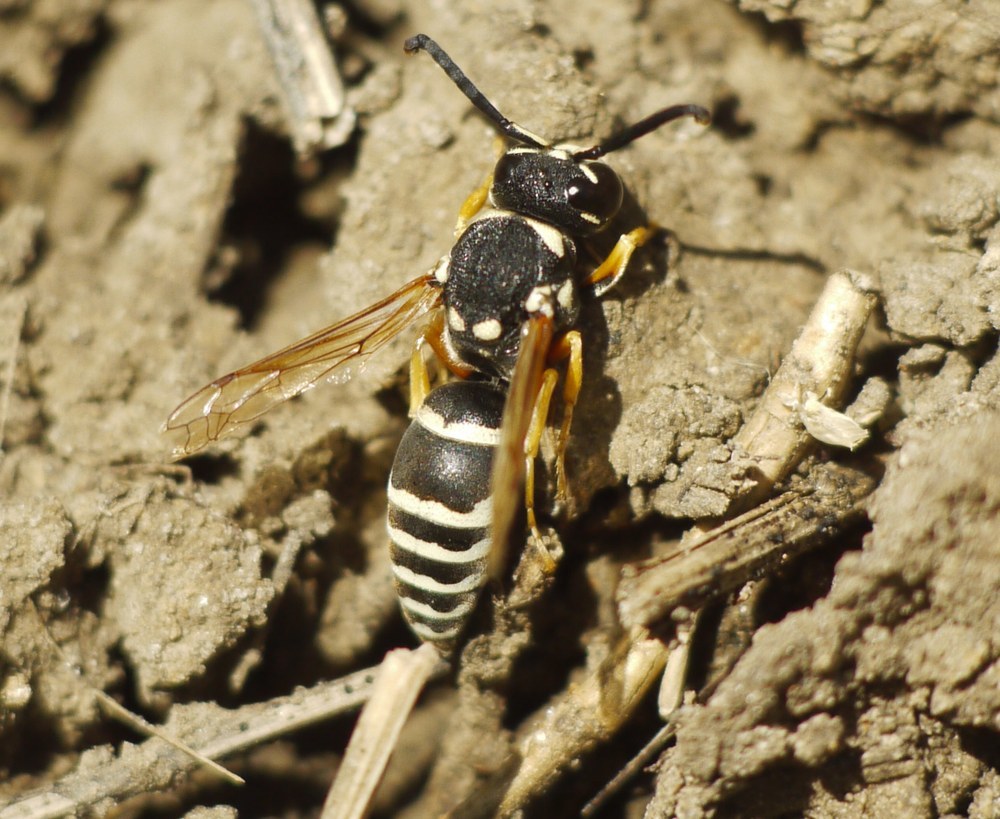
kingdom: Animalia
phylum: Arthropoda
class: Insecta
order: Hymenoptera
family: Eumenidae
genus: Hemipterochilus
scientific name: Hemipterochilus bembeciformis
